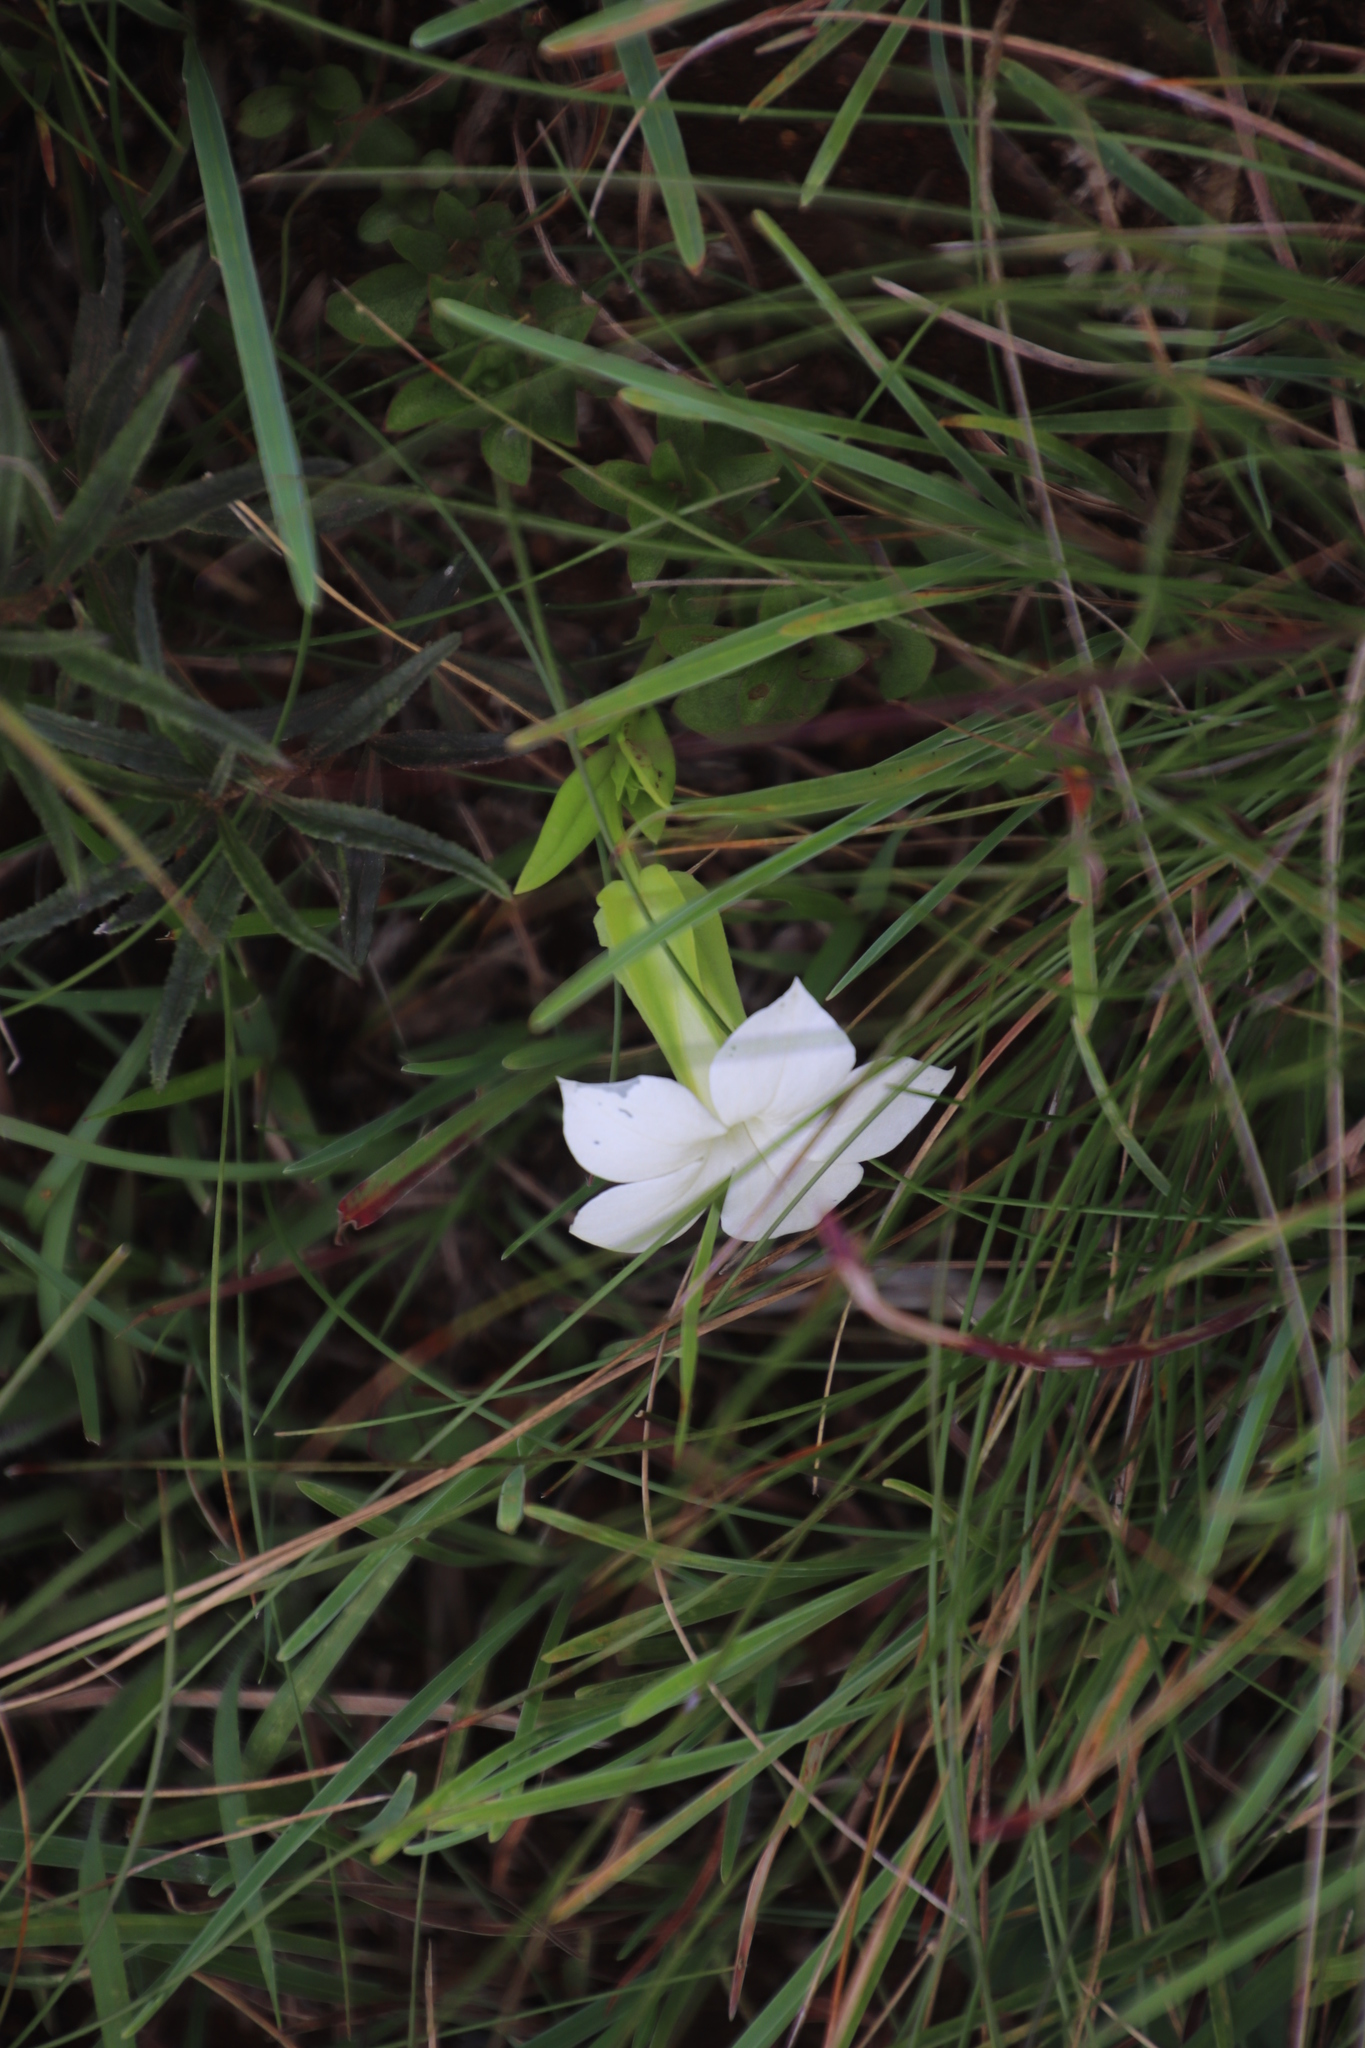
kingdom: Plantae
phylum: Tracheophyta
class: Magnoliopsida
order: Gentianales
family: Gentianaceae
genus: Exochaenium
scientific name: Exochaenium grande
